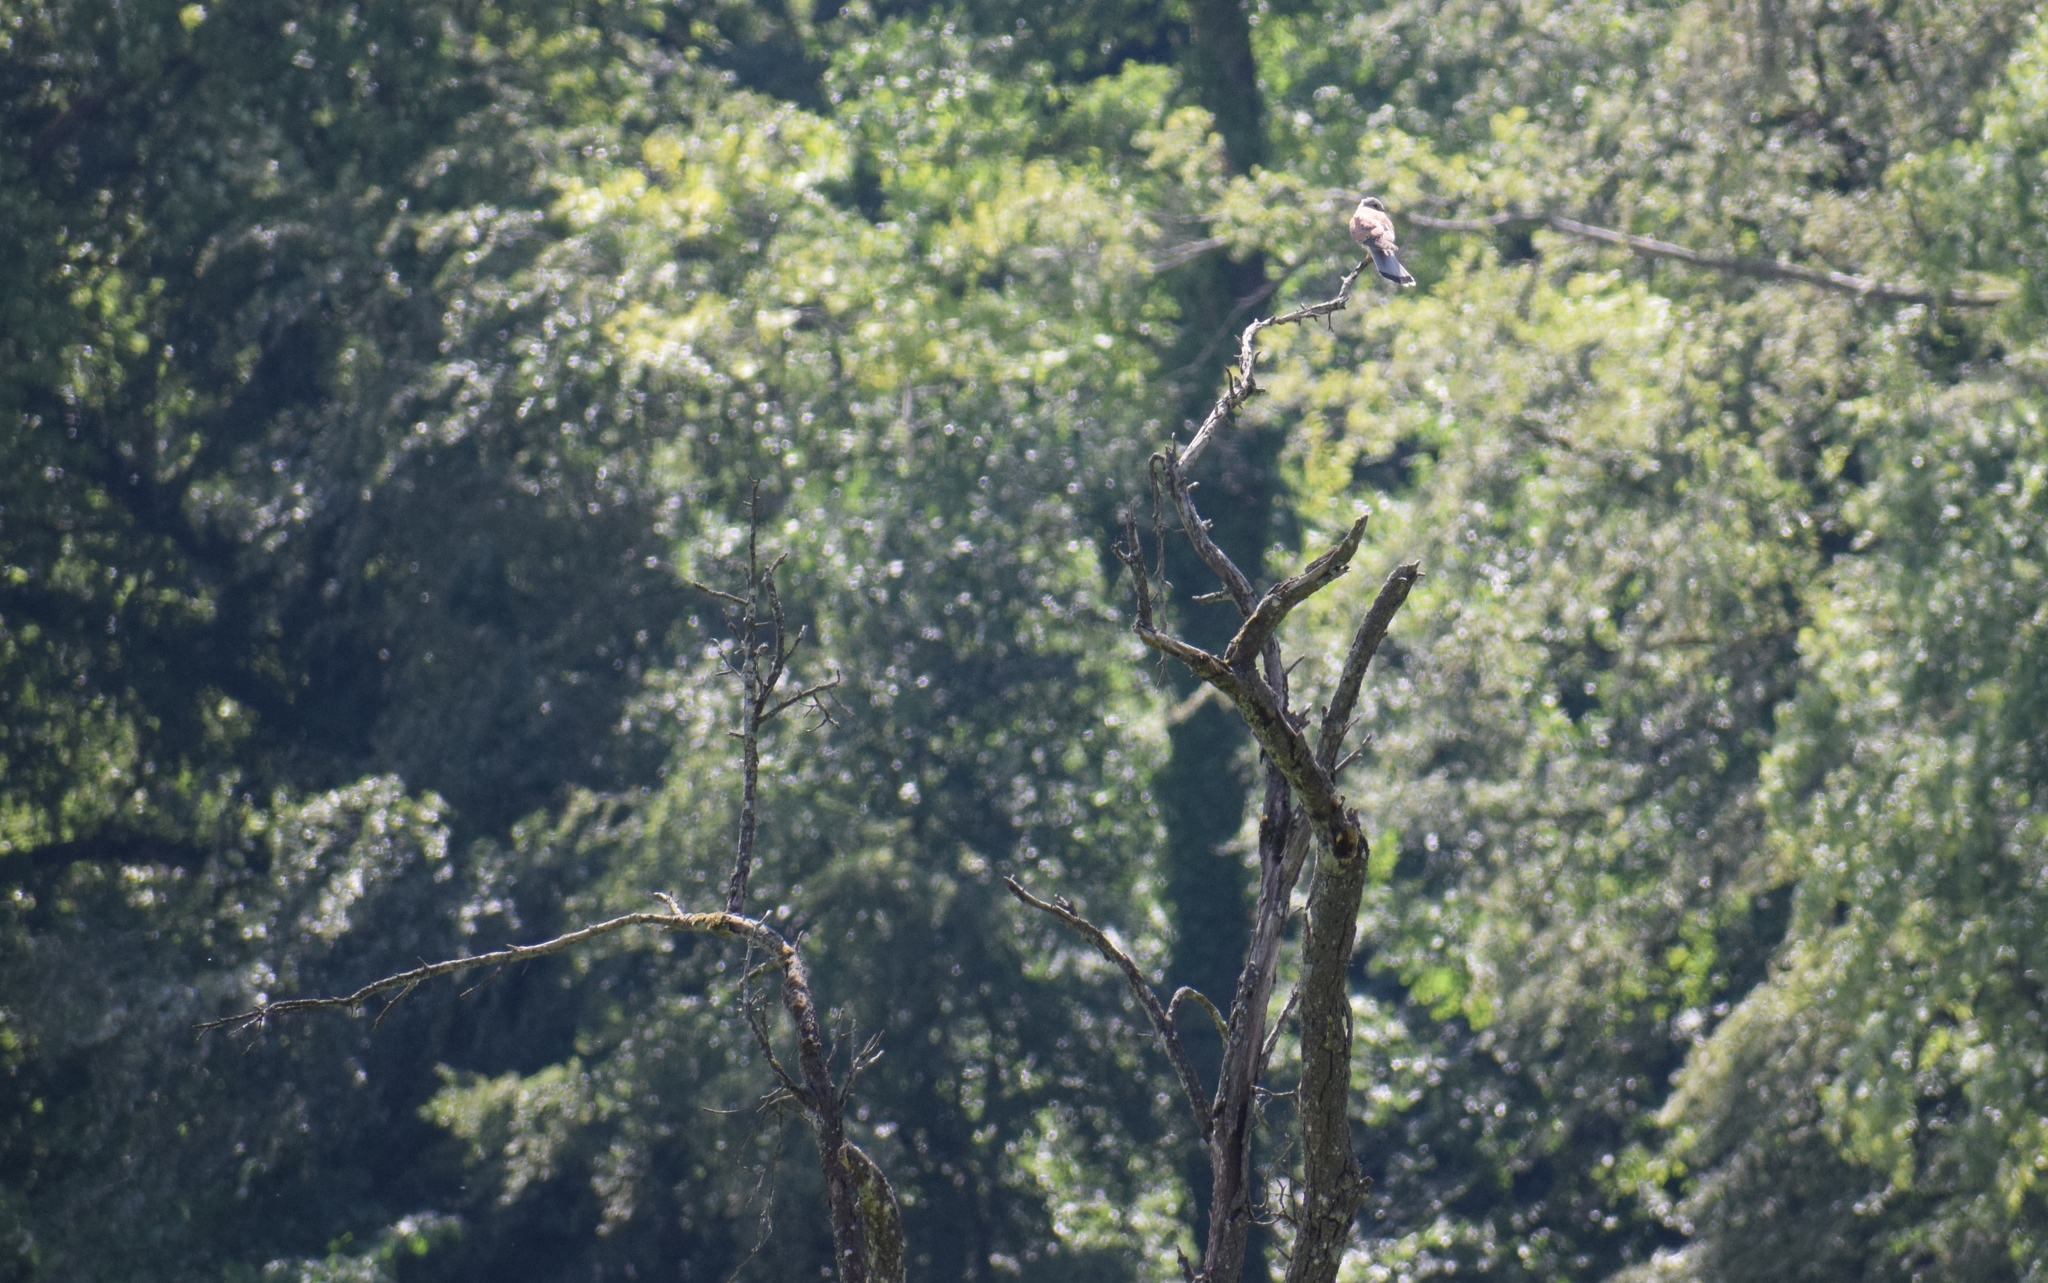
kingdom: Animalia
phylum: Chordata
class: Aves
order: Falconiformes
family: Falconidae
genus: Falco
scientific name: Falco tinnunculus
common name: Common kestrel
